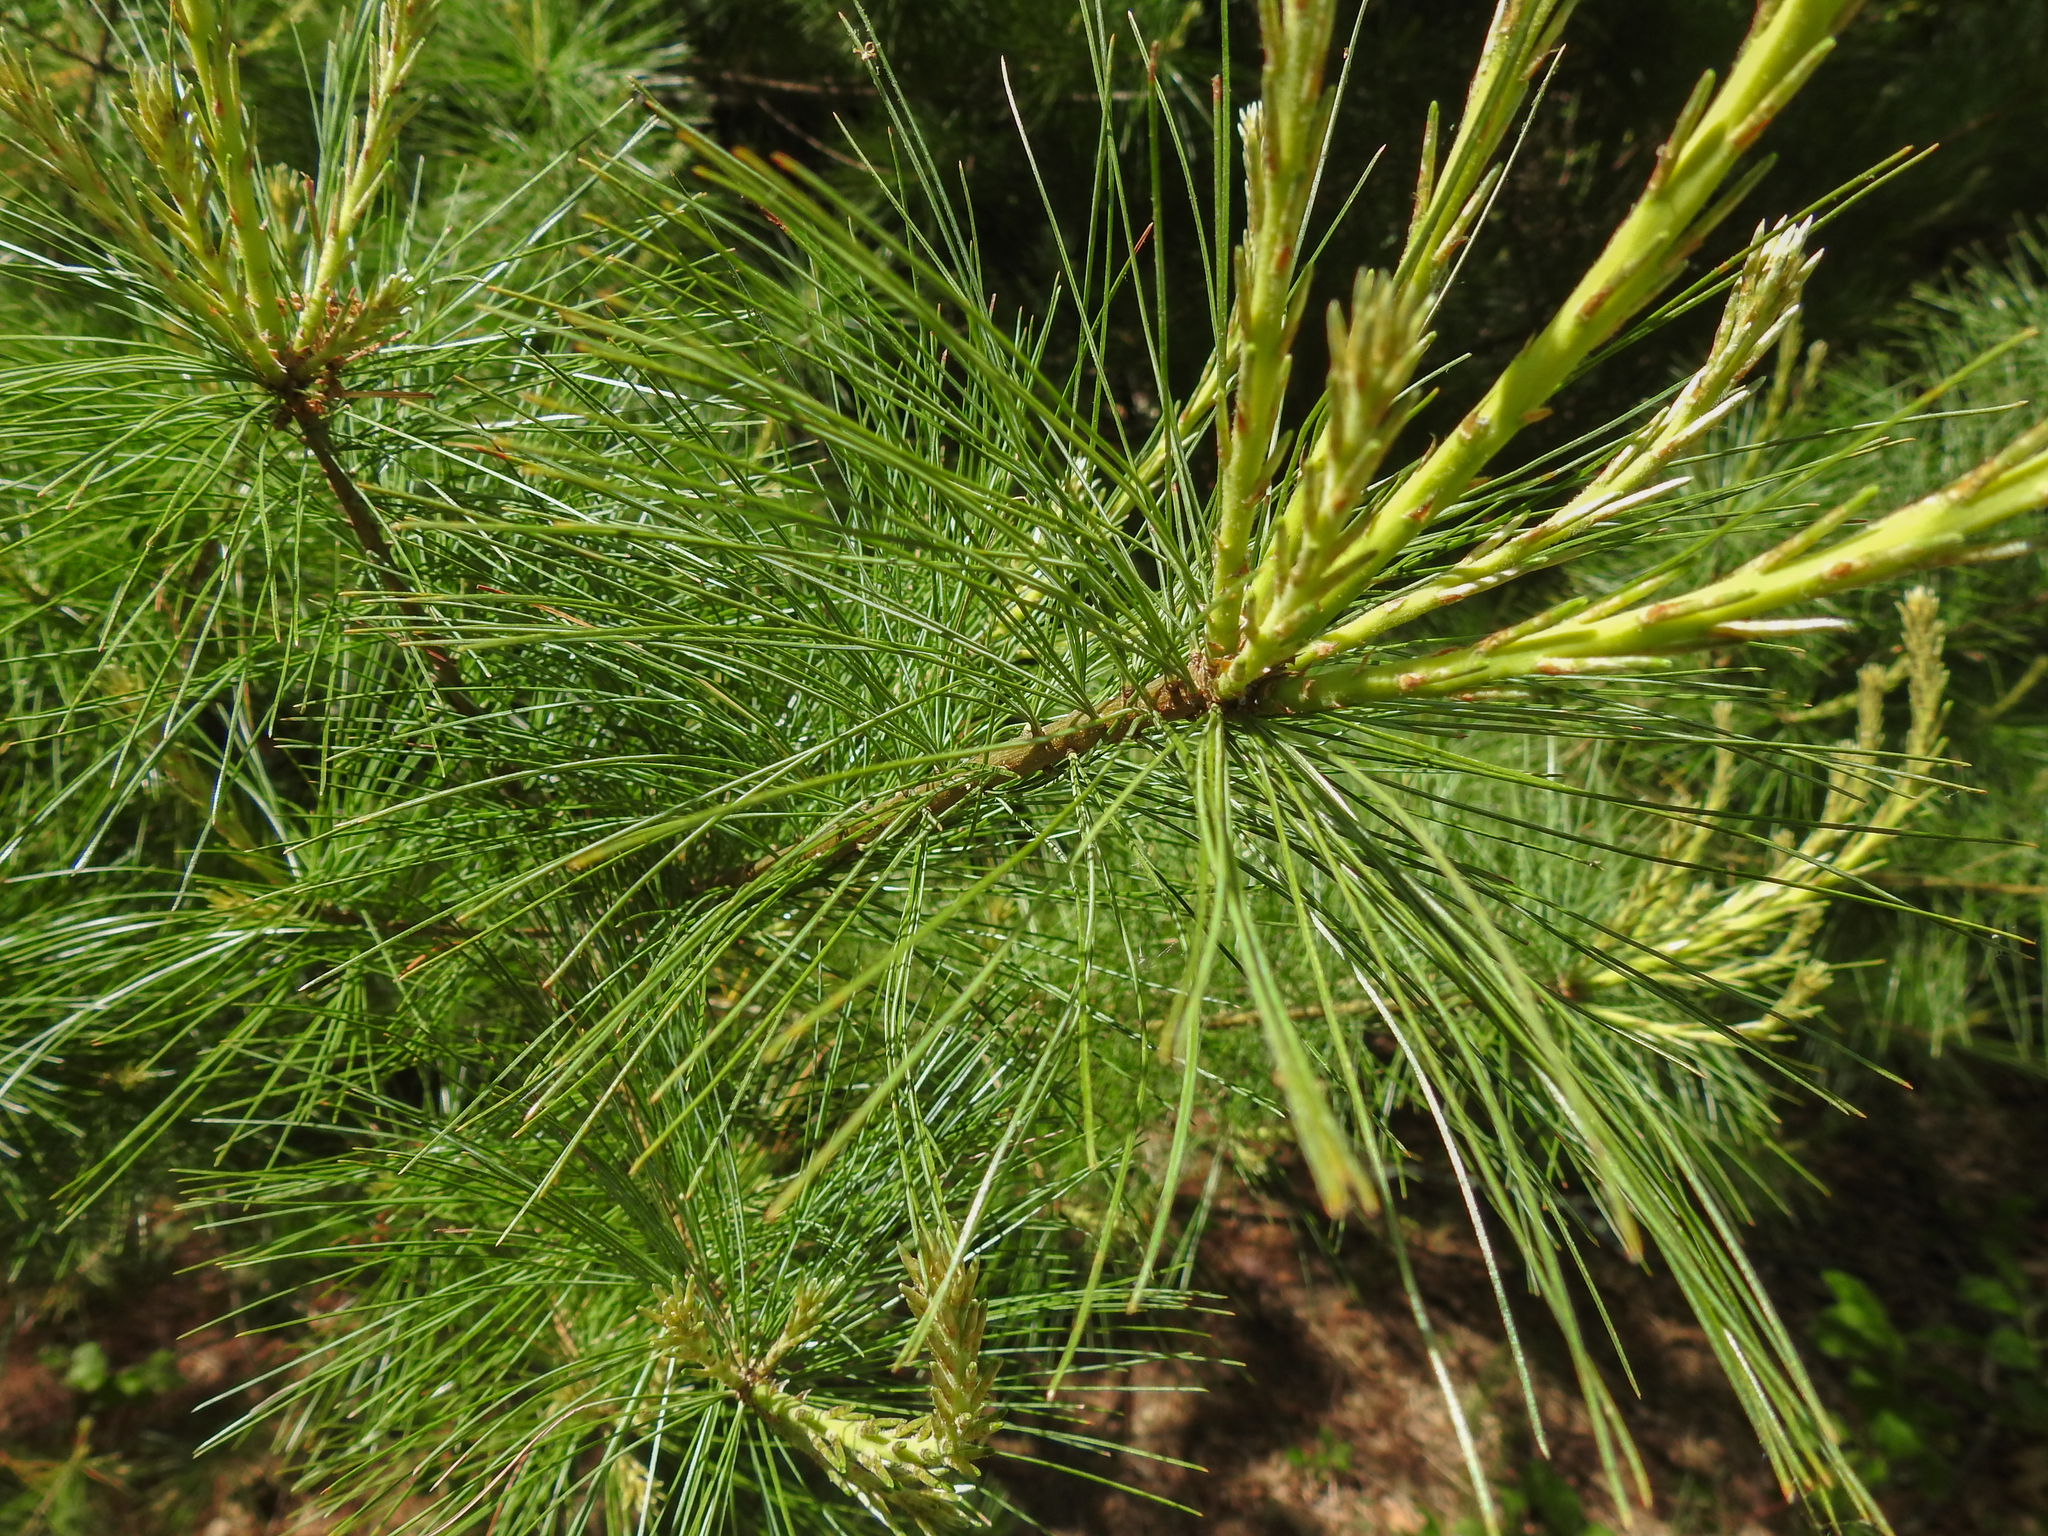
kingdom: Plantae
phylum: Tracheophyta
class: Pinopsida
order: Pinales
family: Pinaceae
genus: Pinus
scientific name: Pinus strobus
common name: Weymouth pine
